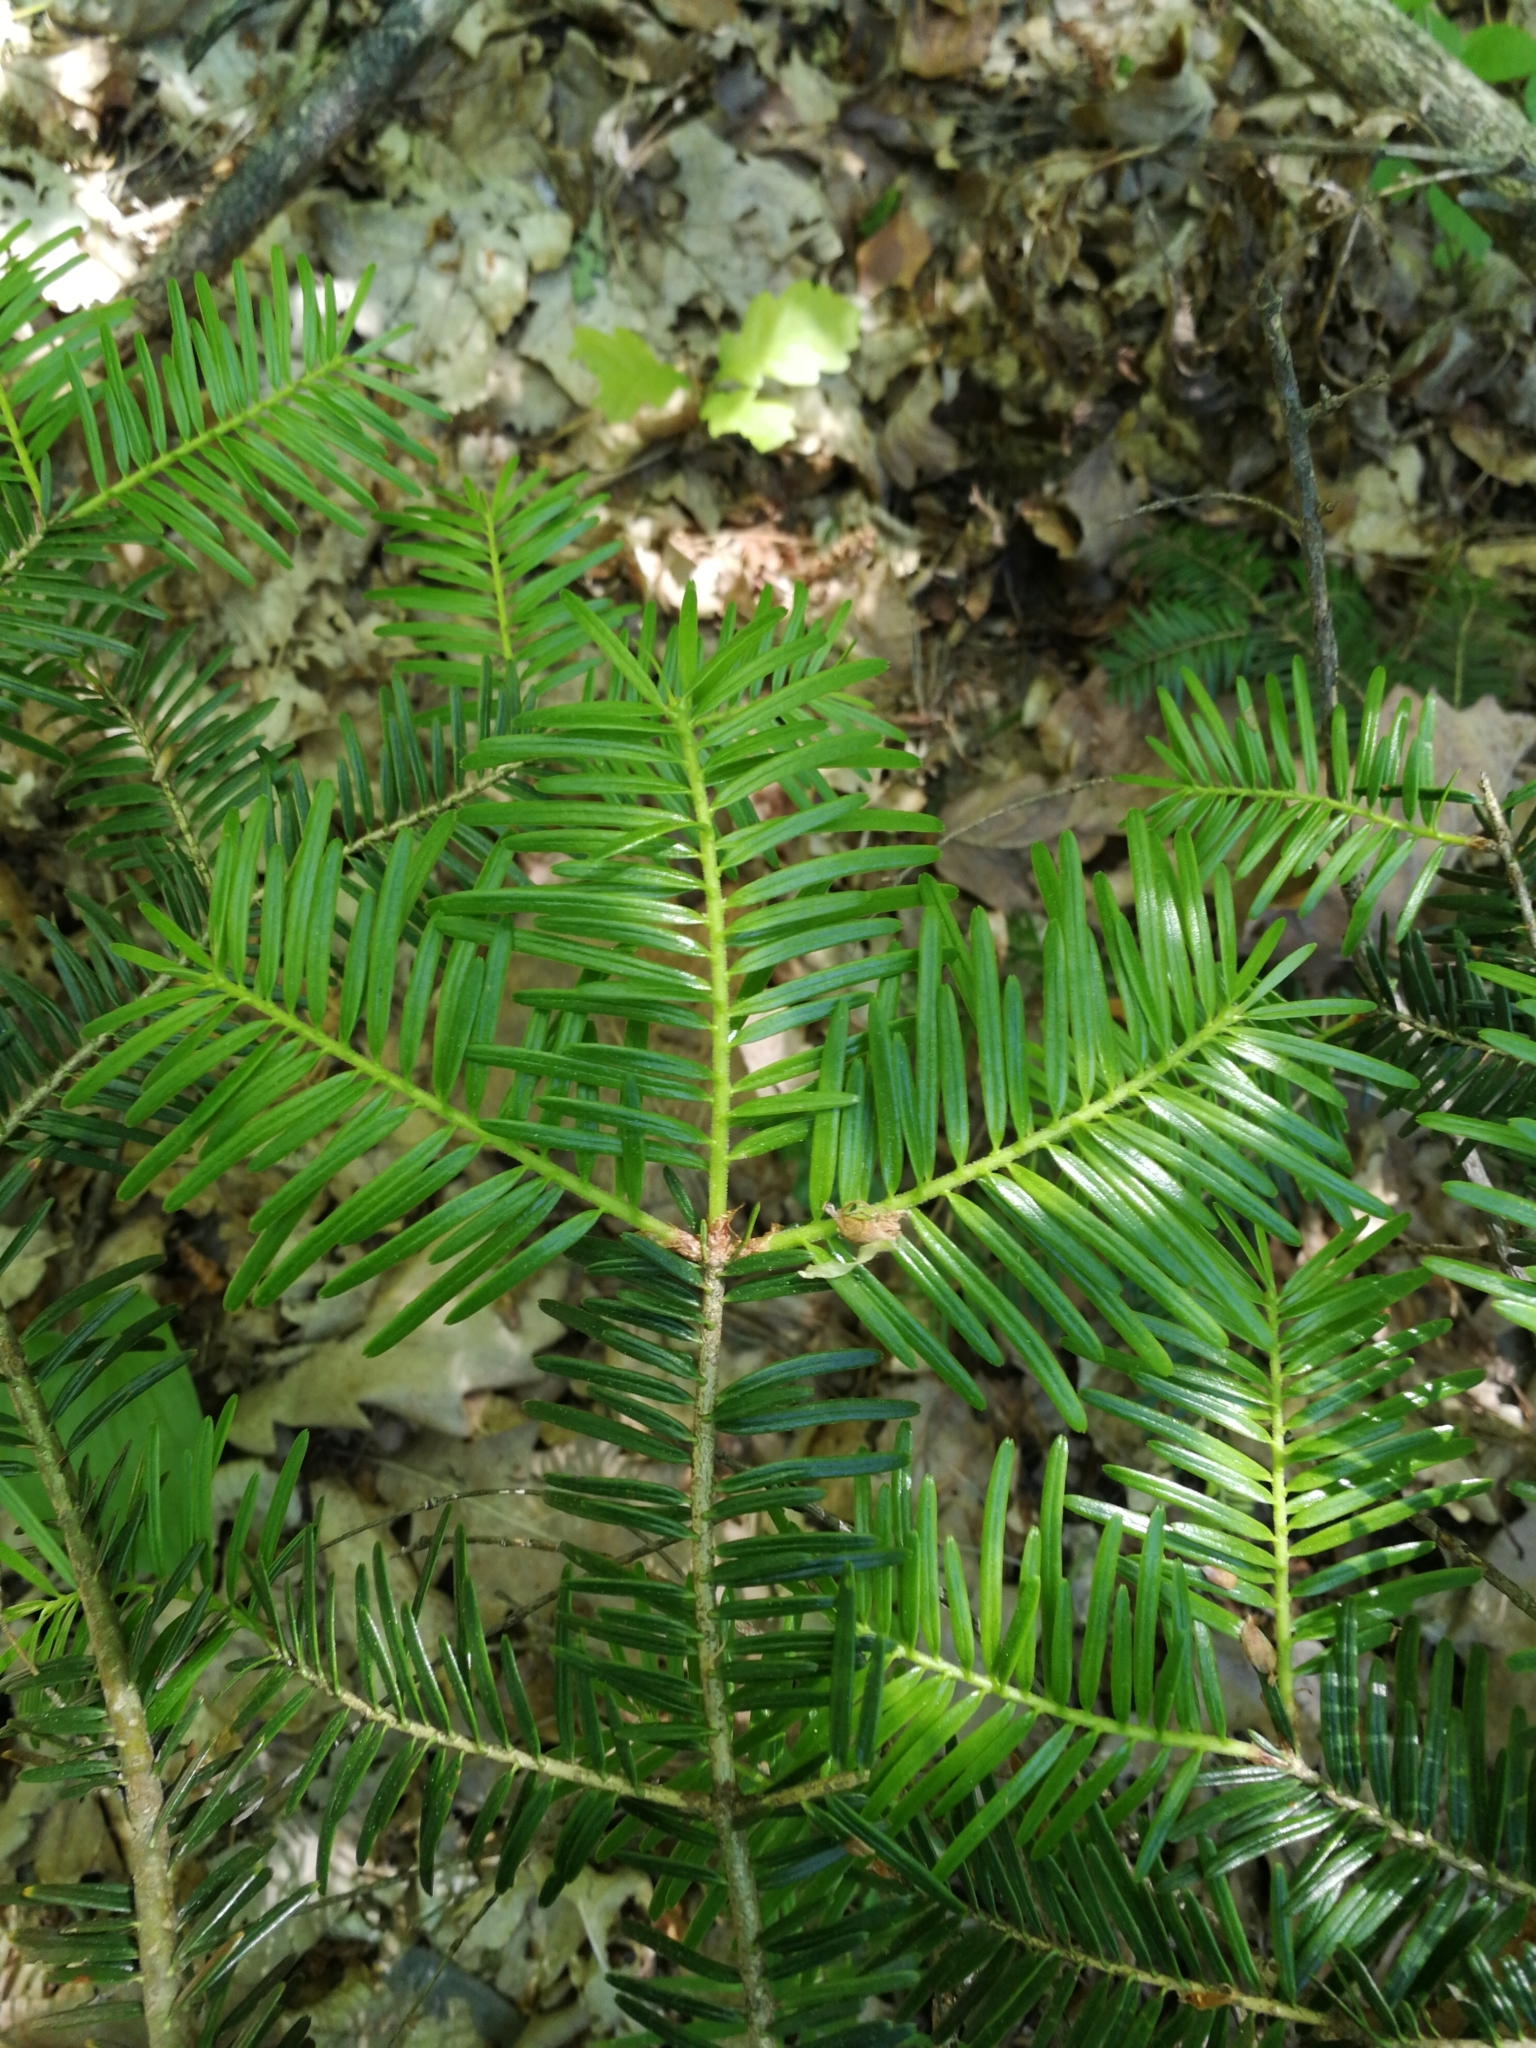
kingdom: Plantae
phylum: Tracheophyta
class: Pinopsida
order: Pinales
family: Pinaceae
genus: Abies
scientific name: Abies alba
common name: Silver fir
